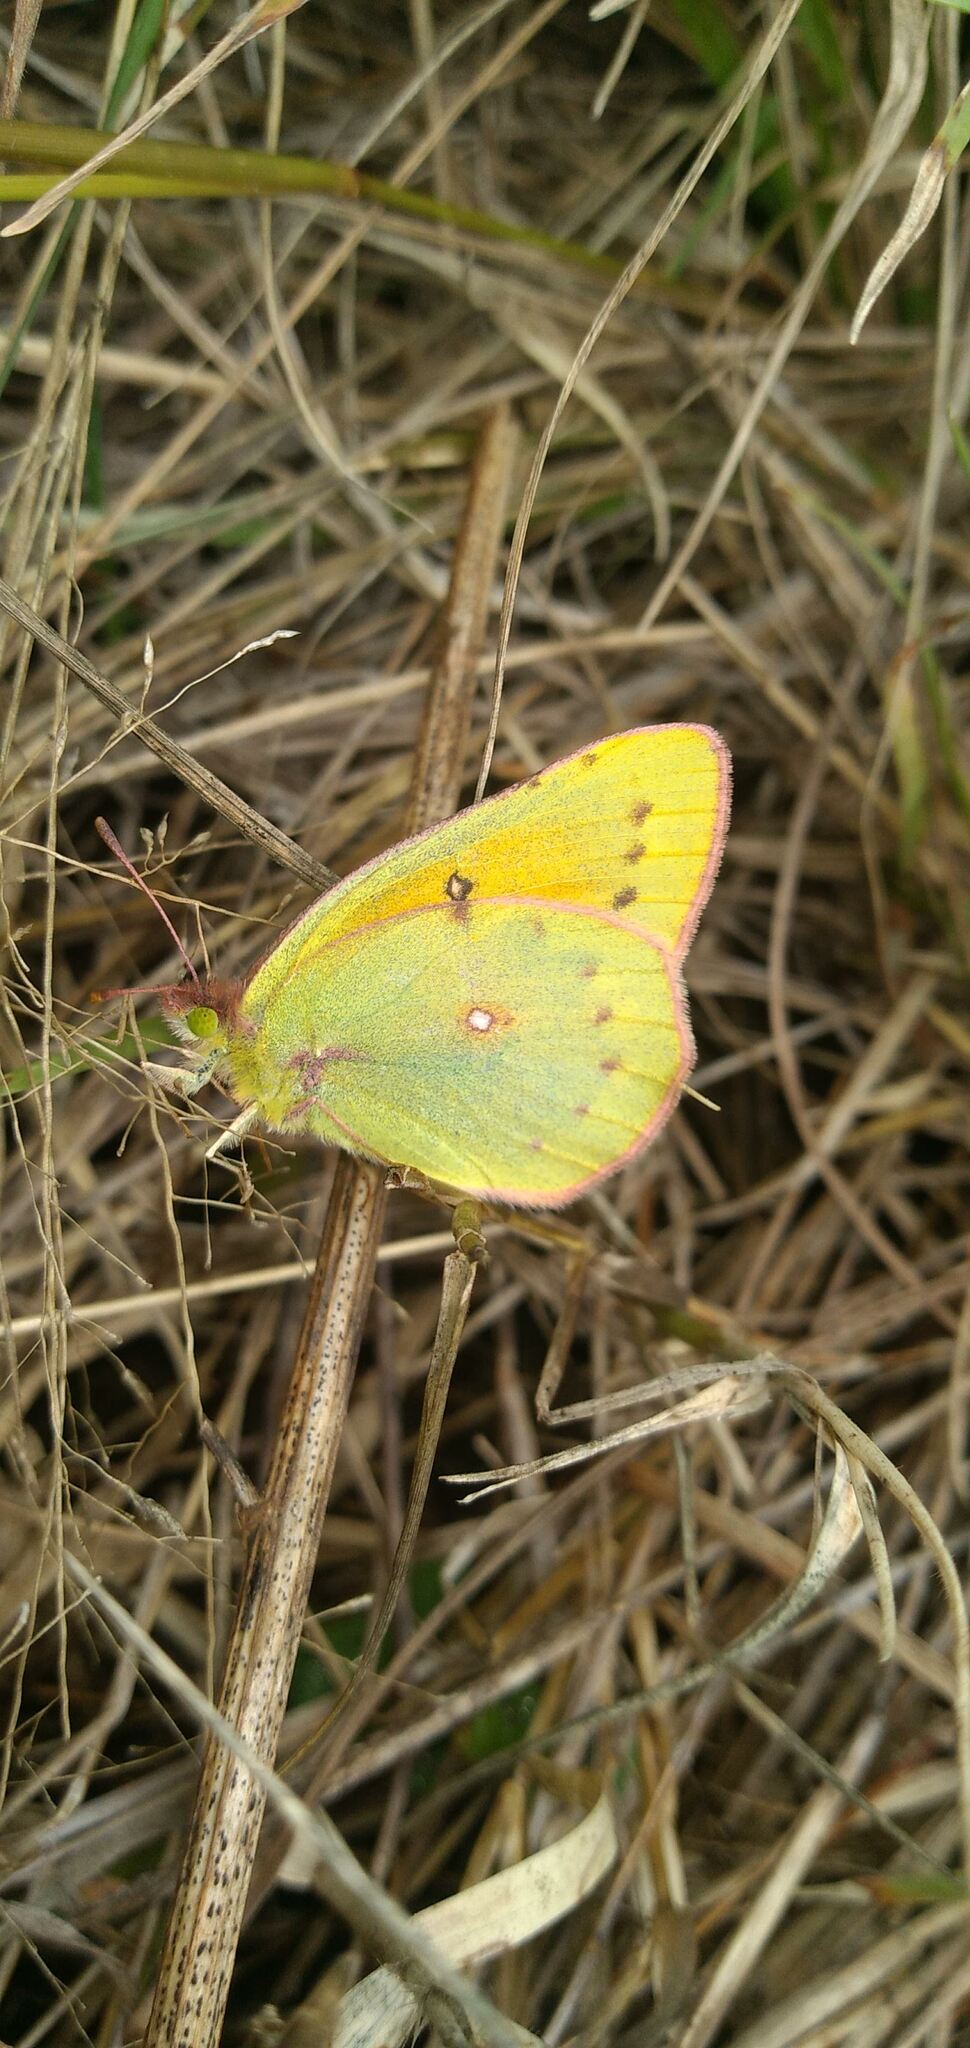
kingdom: Animalia
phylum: Arthropoda
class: Insecta
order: Lepidoptera
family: Pieridae
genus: Colias
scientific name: Colias lesbia
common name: Lesbia clouded yellow
